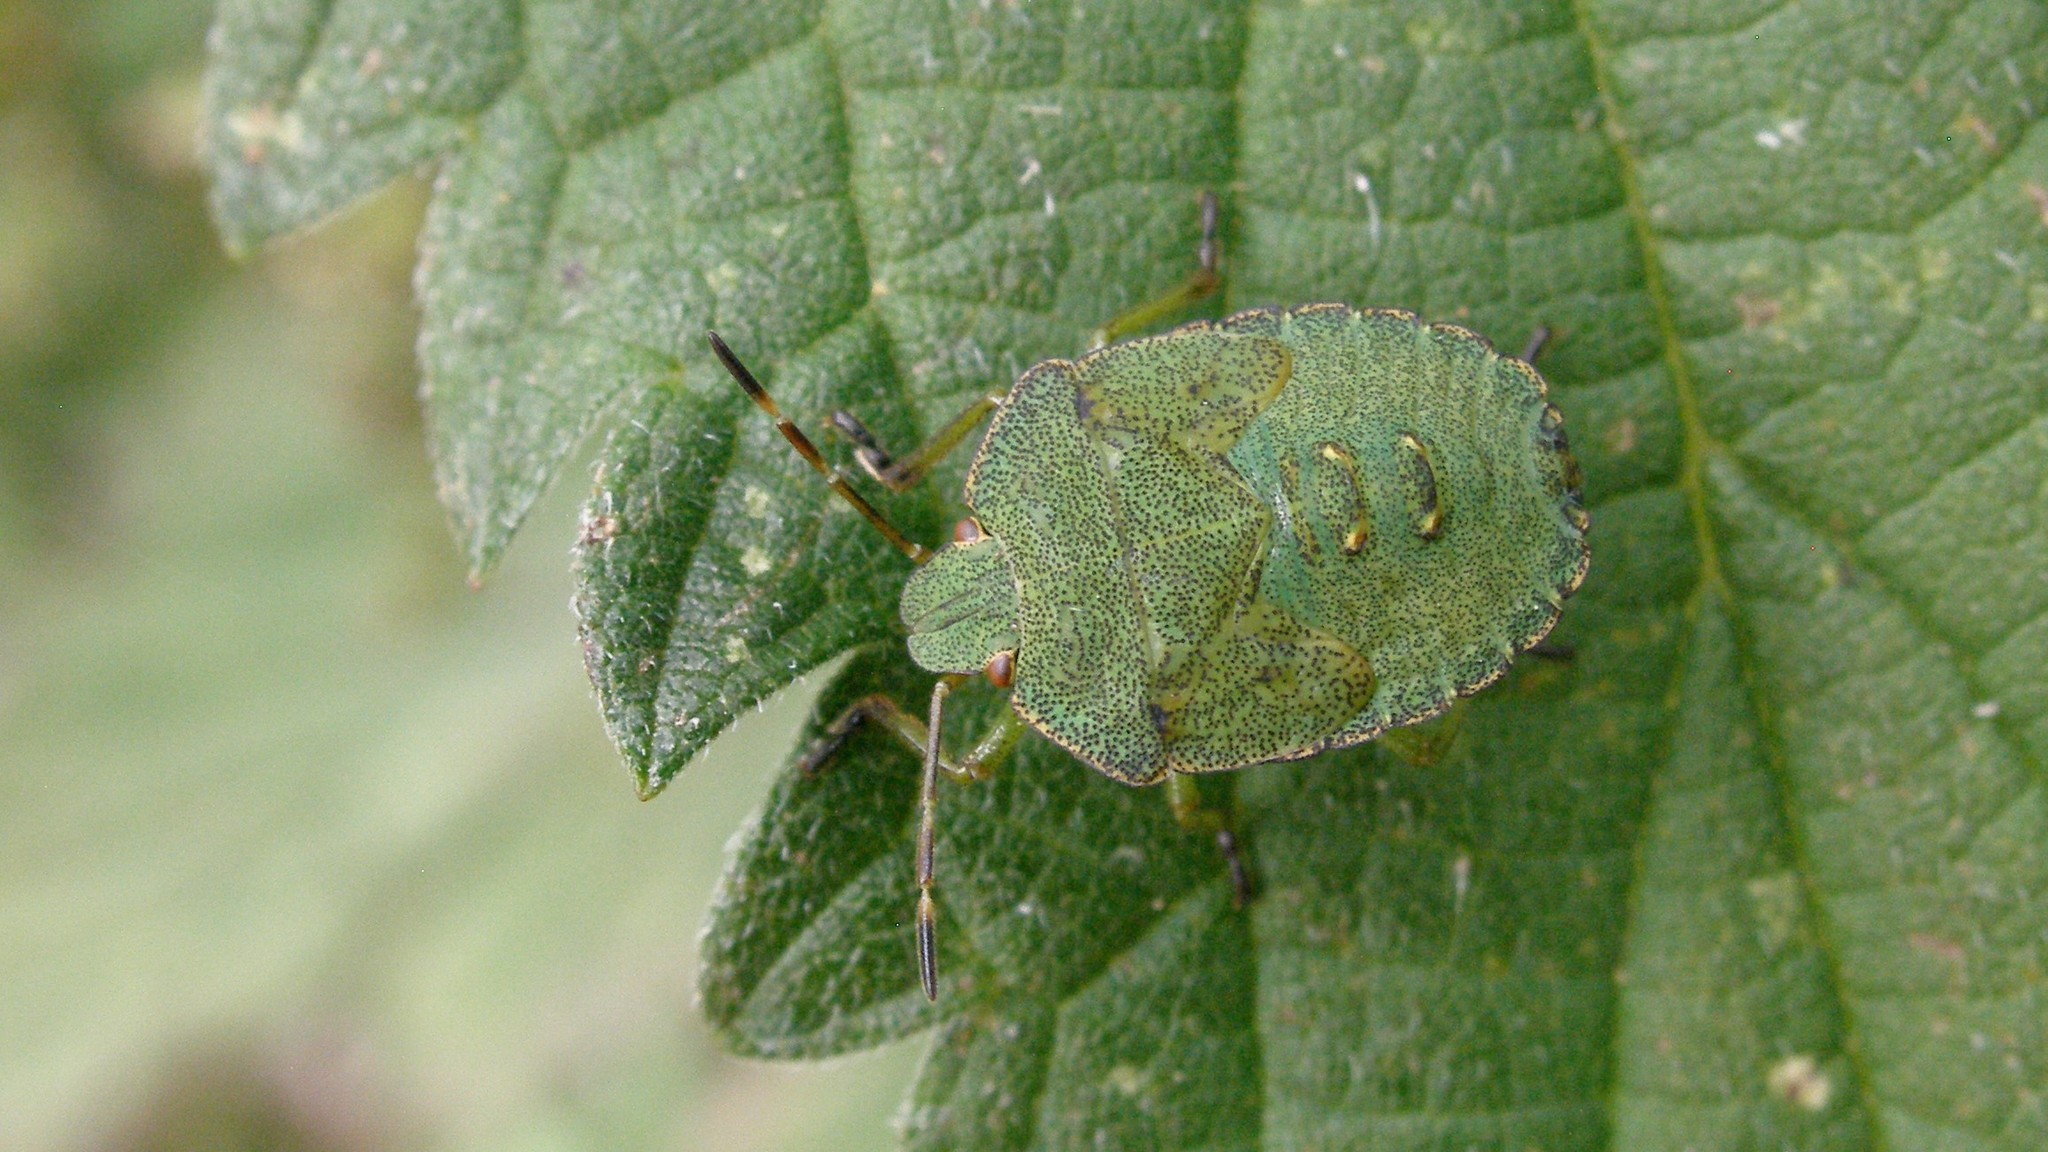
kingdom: Animalia
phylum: Arthropoda
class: Insecta
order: Hemiptera
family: Pentatomidae
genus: Palomena
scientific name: Palomena prasina
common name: Green shieldbug
